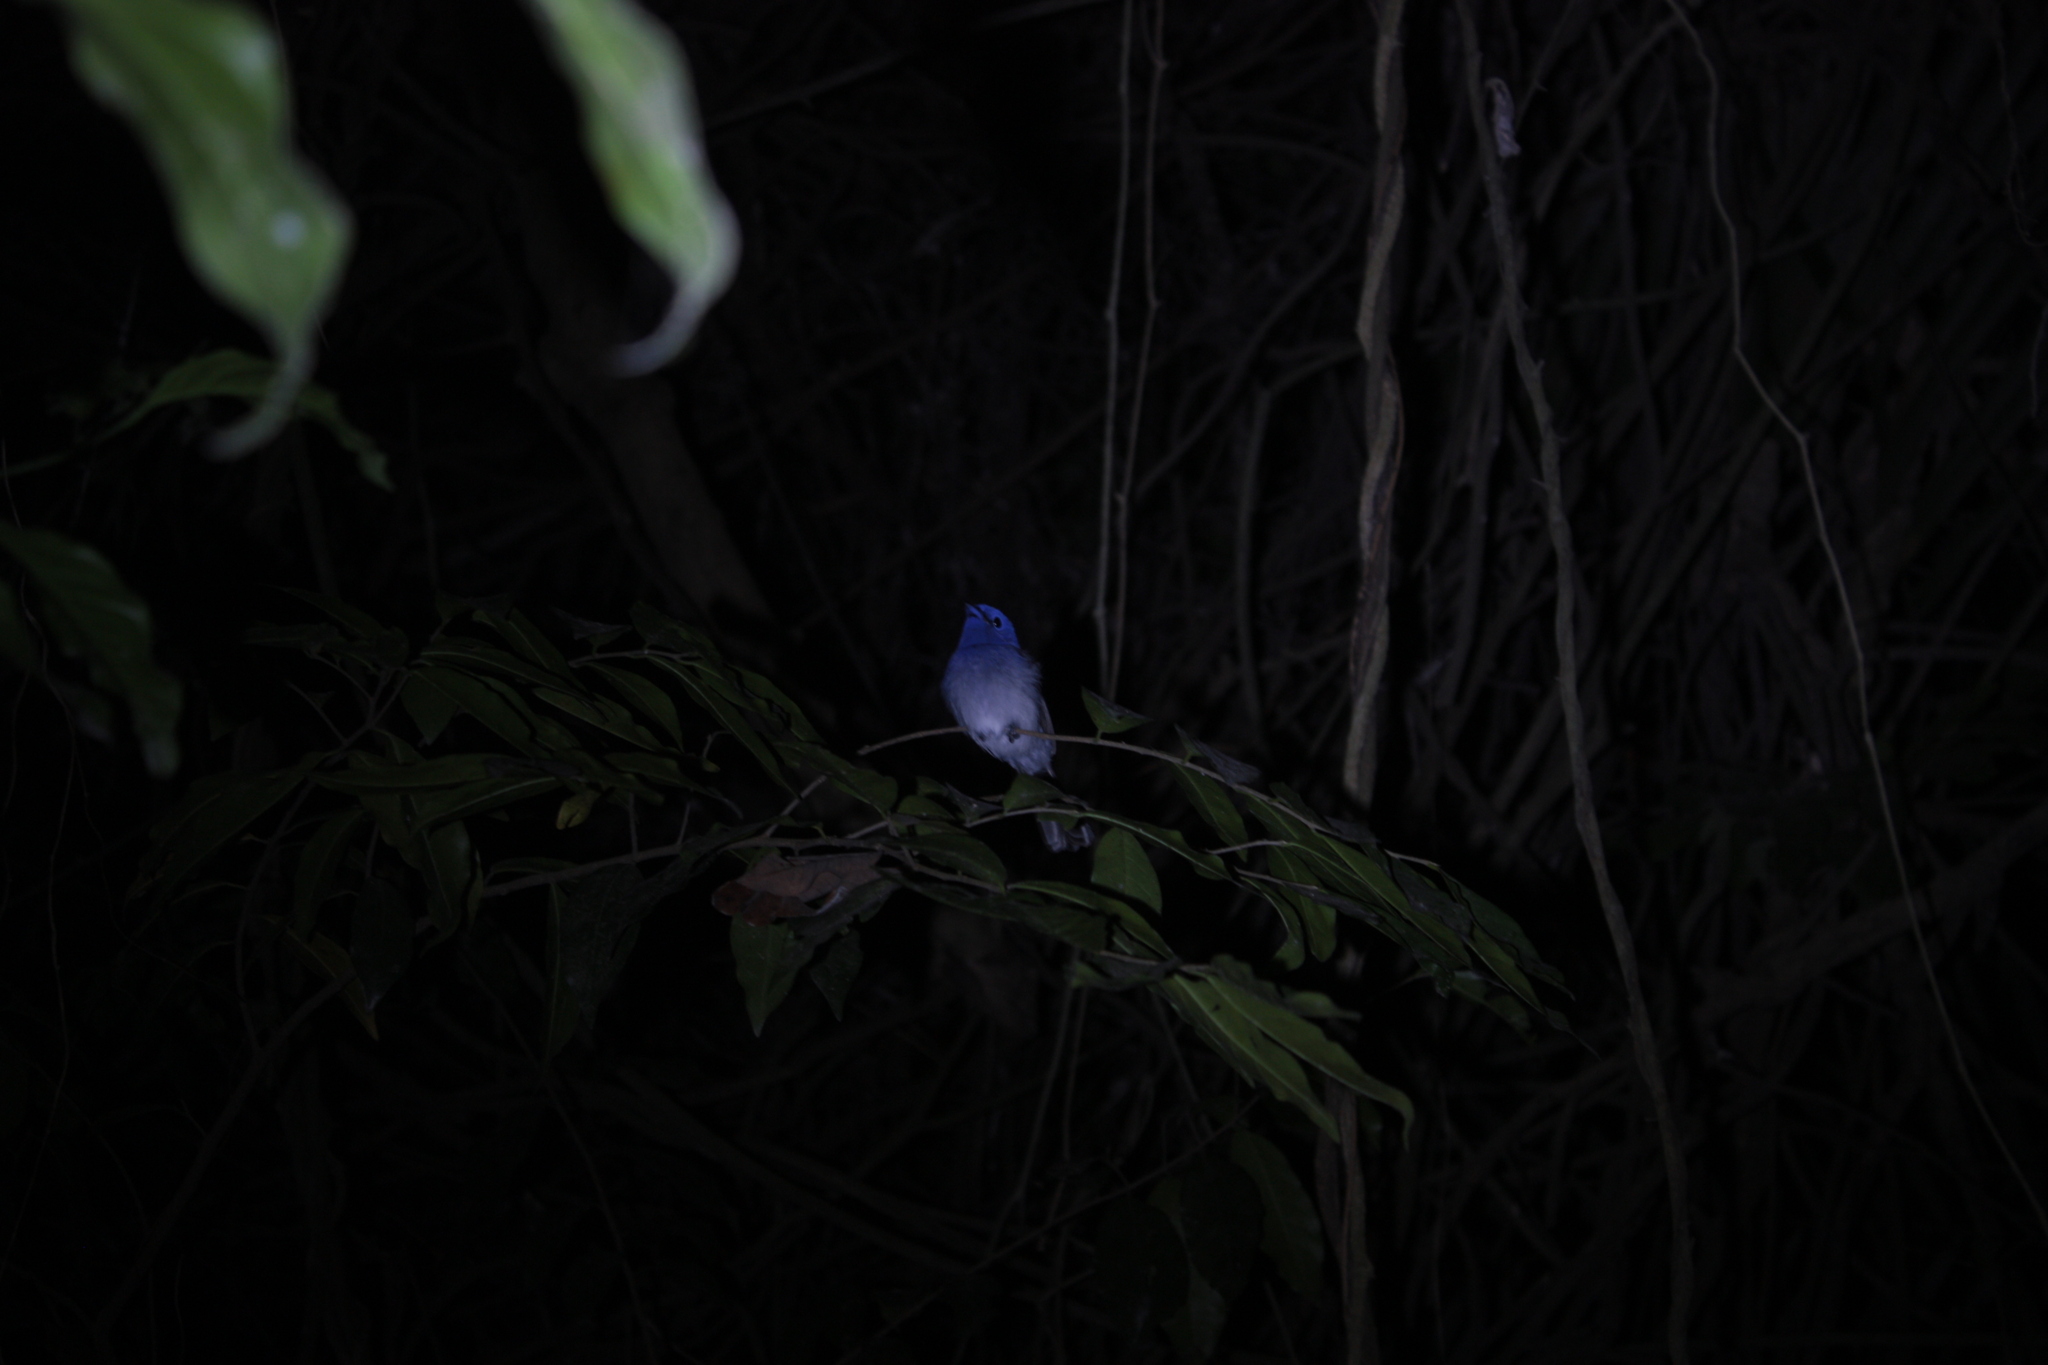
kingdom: Animalia
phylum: Chordata
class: Aves
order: Passeriformes
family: Monarchidae
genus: Hypothymis
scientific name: Hypothymis azurea
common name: Black-naped monarch
